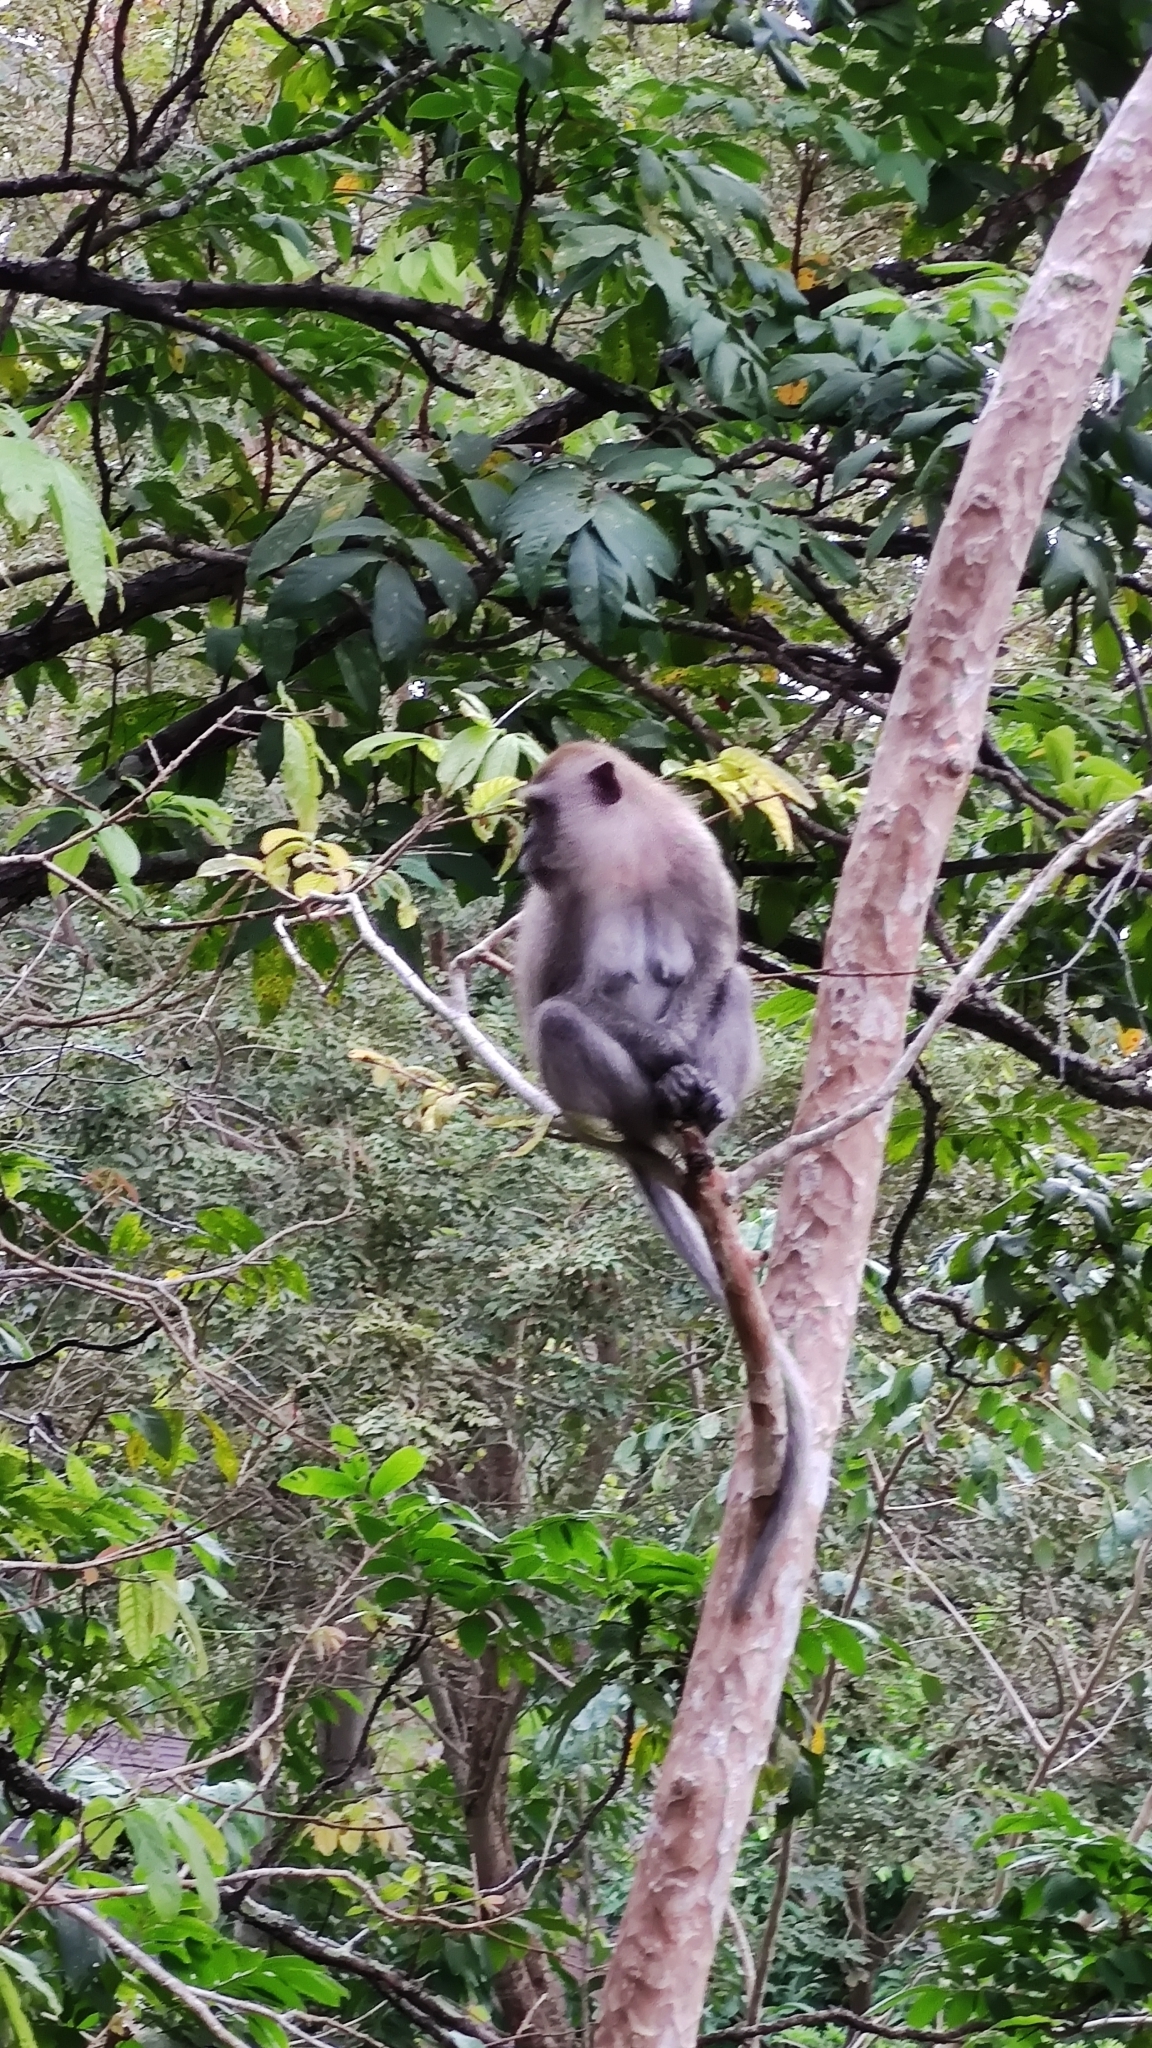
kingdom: Animalia
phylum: Chordata
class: Mammalia
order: Primates
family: Cercopithecidae
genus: Macaca
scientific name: Macaca fascicularis
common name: Crab-eating macaque
